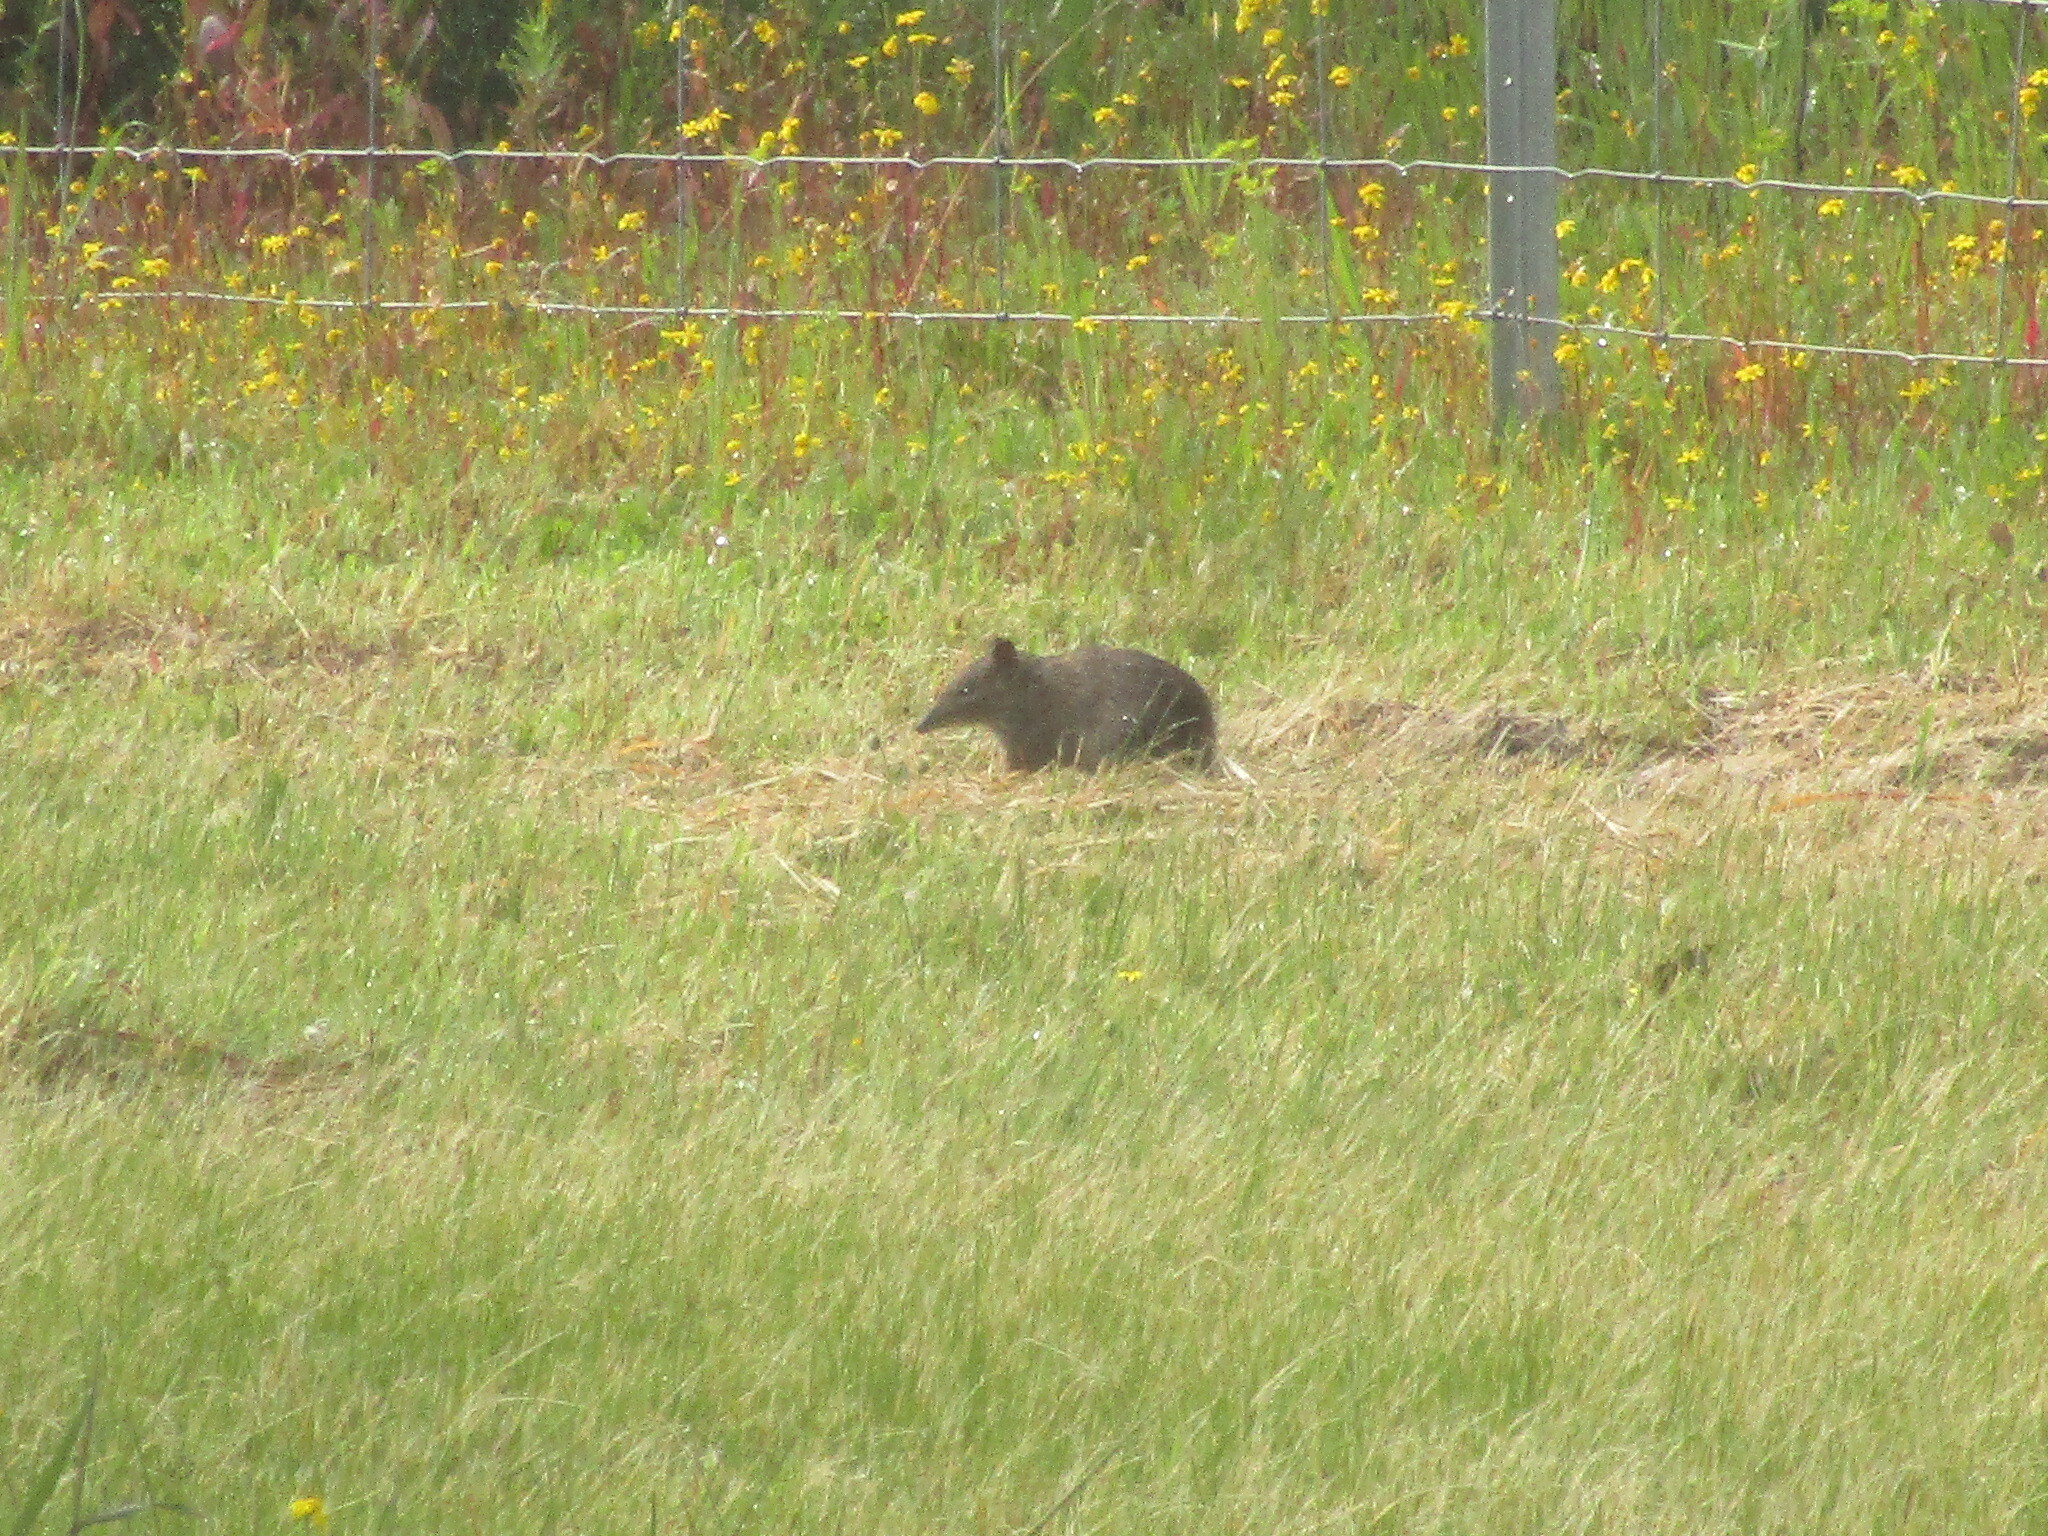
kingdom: Animalia
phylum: Chordata
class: Mammalia
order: Peramelemorphia
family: Peramelidae
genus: Isoodon
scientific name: Isoodon fusciventer
